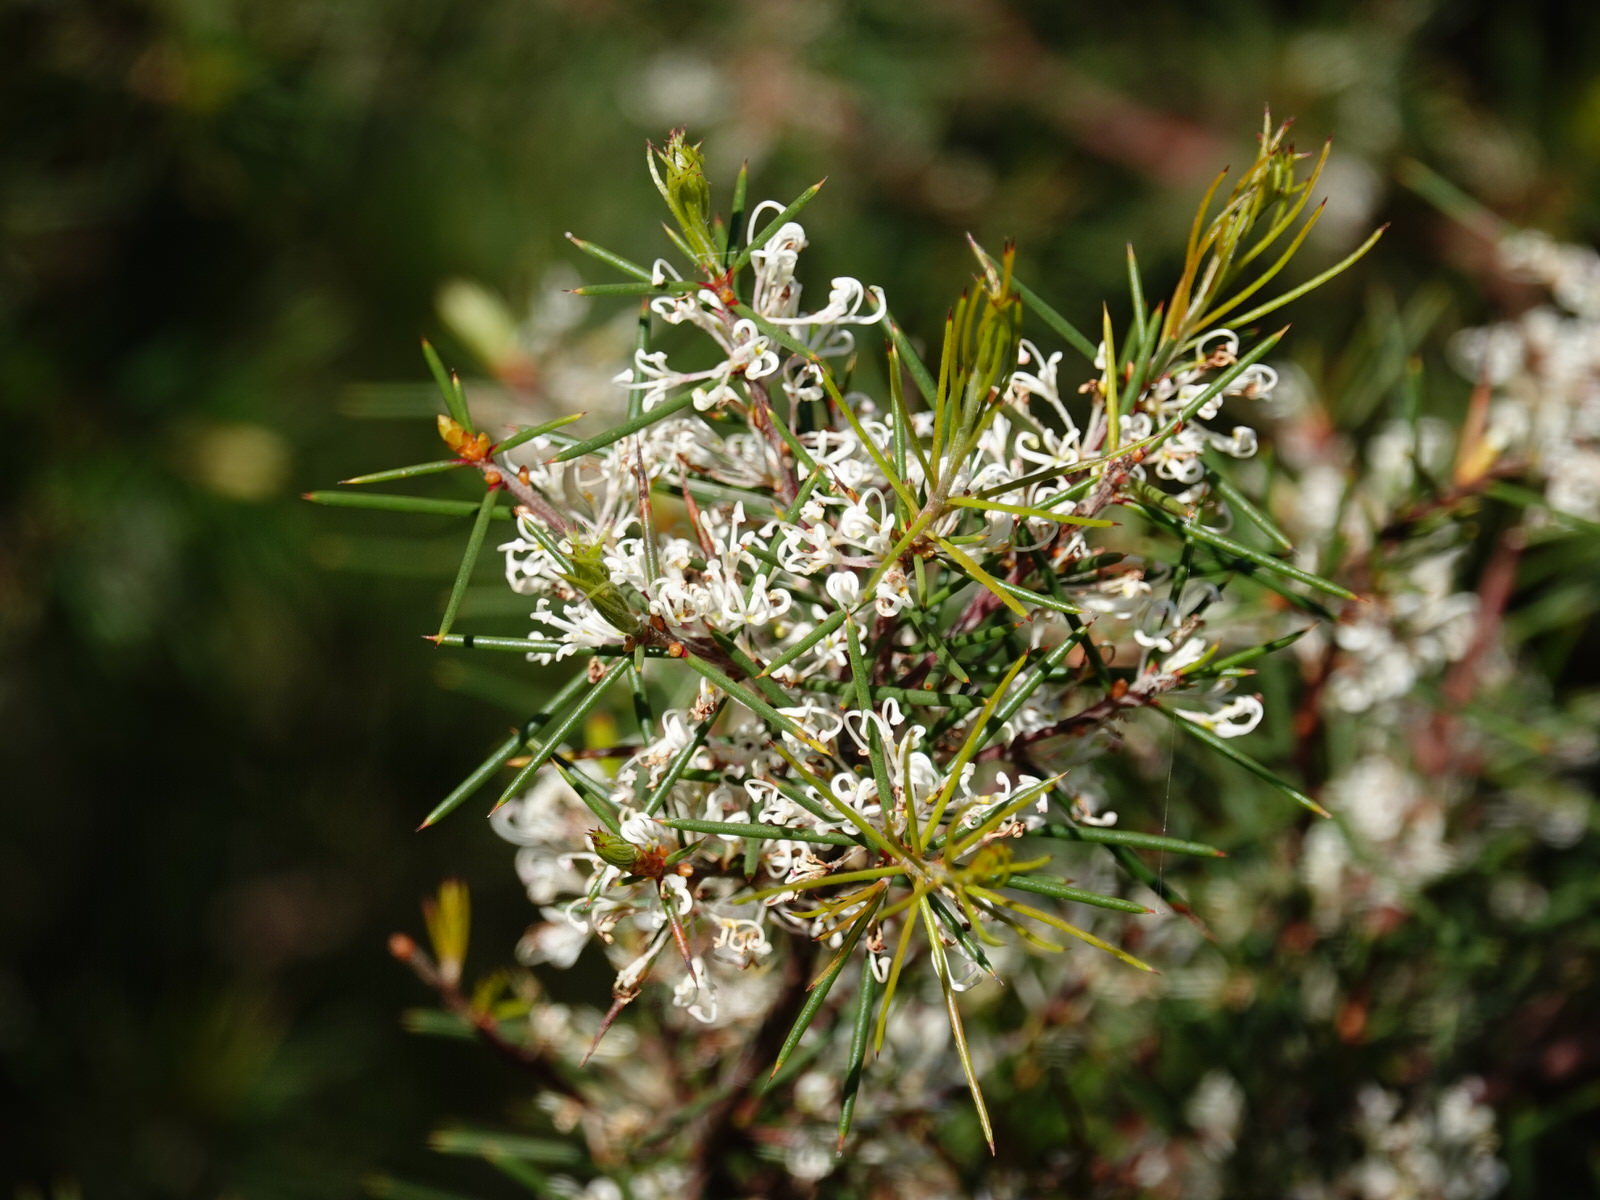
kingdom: Plantae
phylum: Tracheophyta
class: Magnoliopsida
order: Proteales
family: Proteaceae
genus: Hakea
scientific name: Hakea sericea
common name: Needle bush
